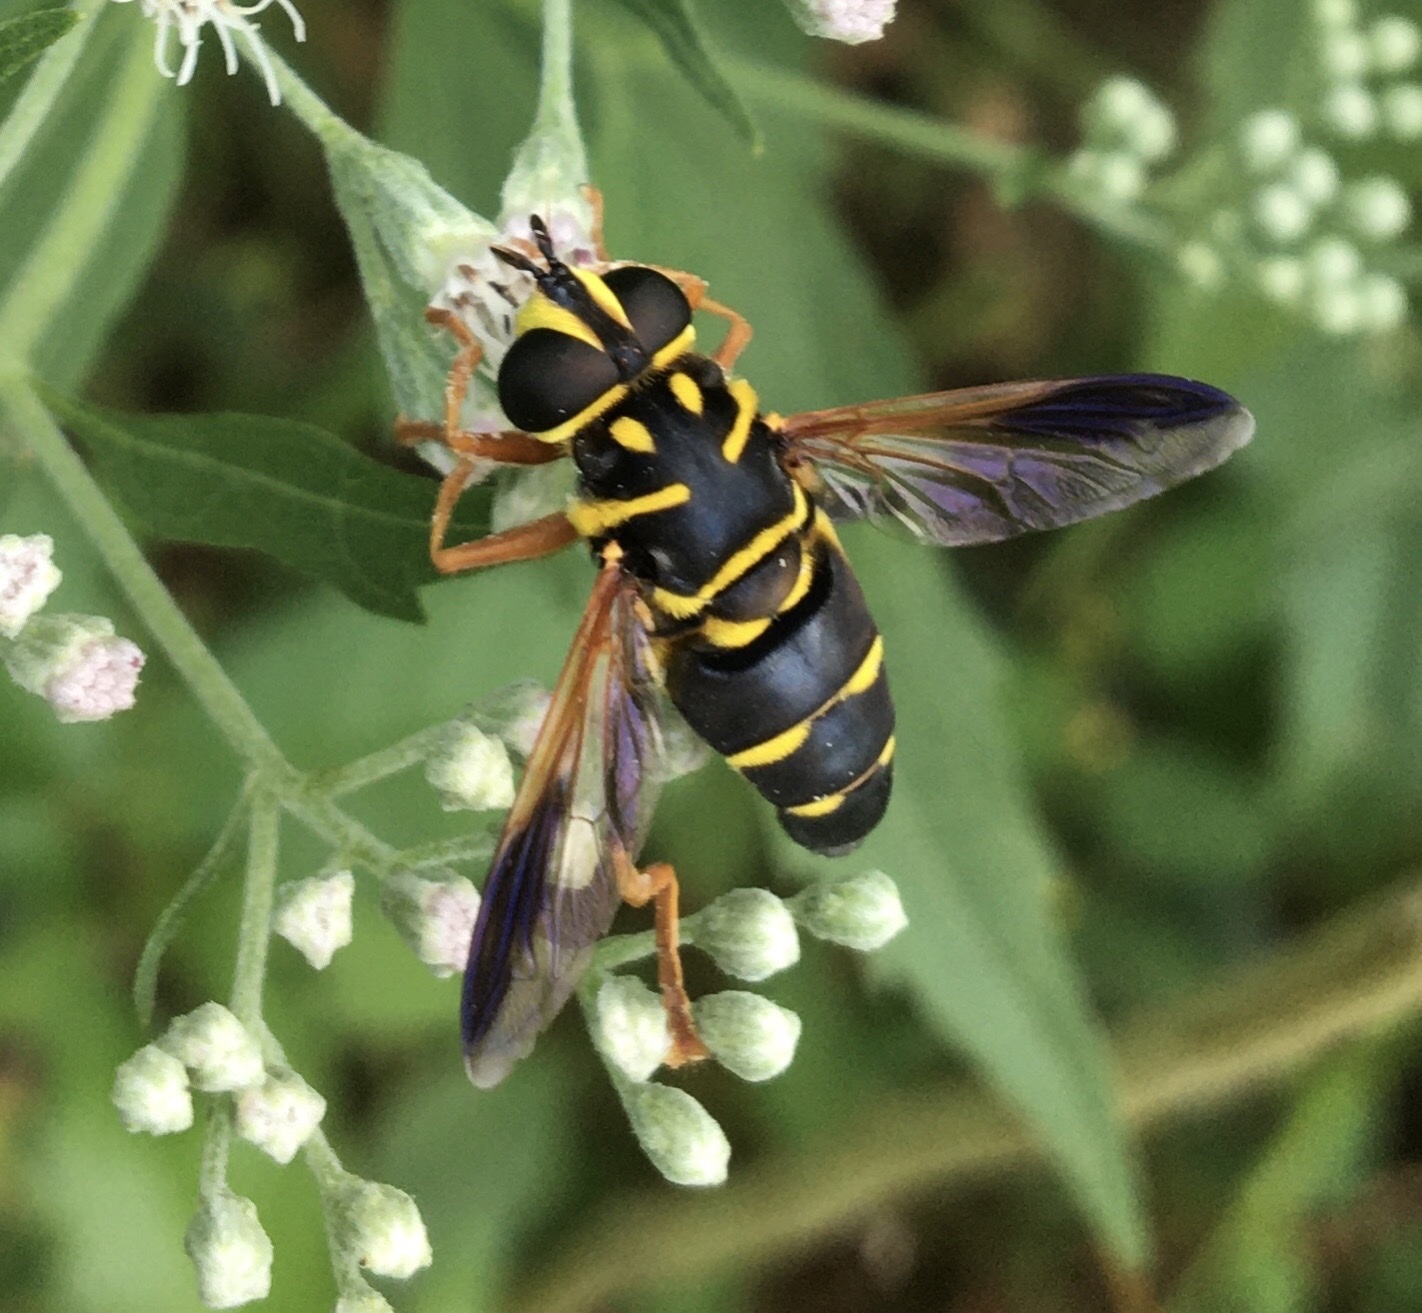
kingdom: Animalia
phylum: Arthropoda
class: Insecta
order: Diptera
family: Syrphidae
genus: Meromacrus
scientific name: Meromacrus acutus
